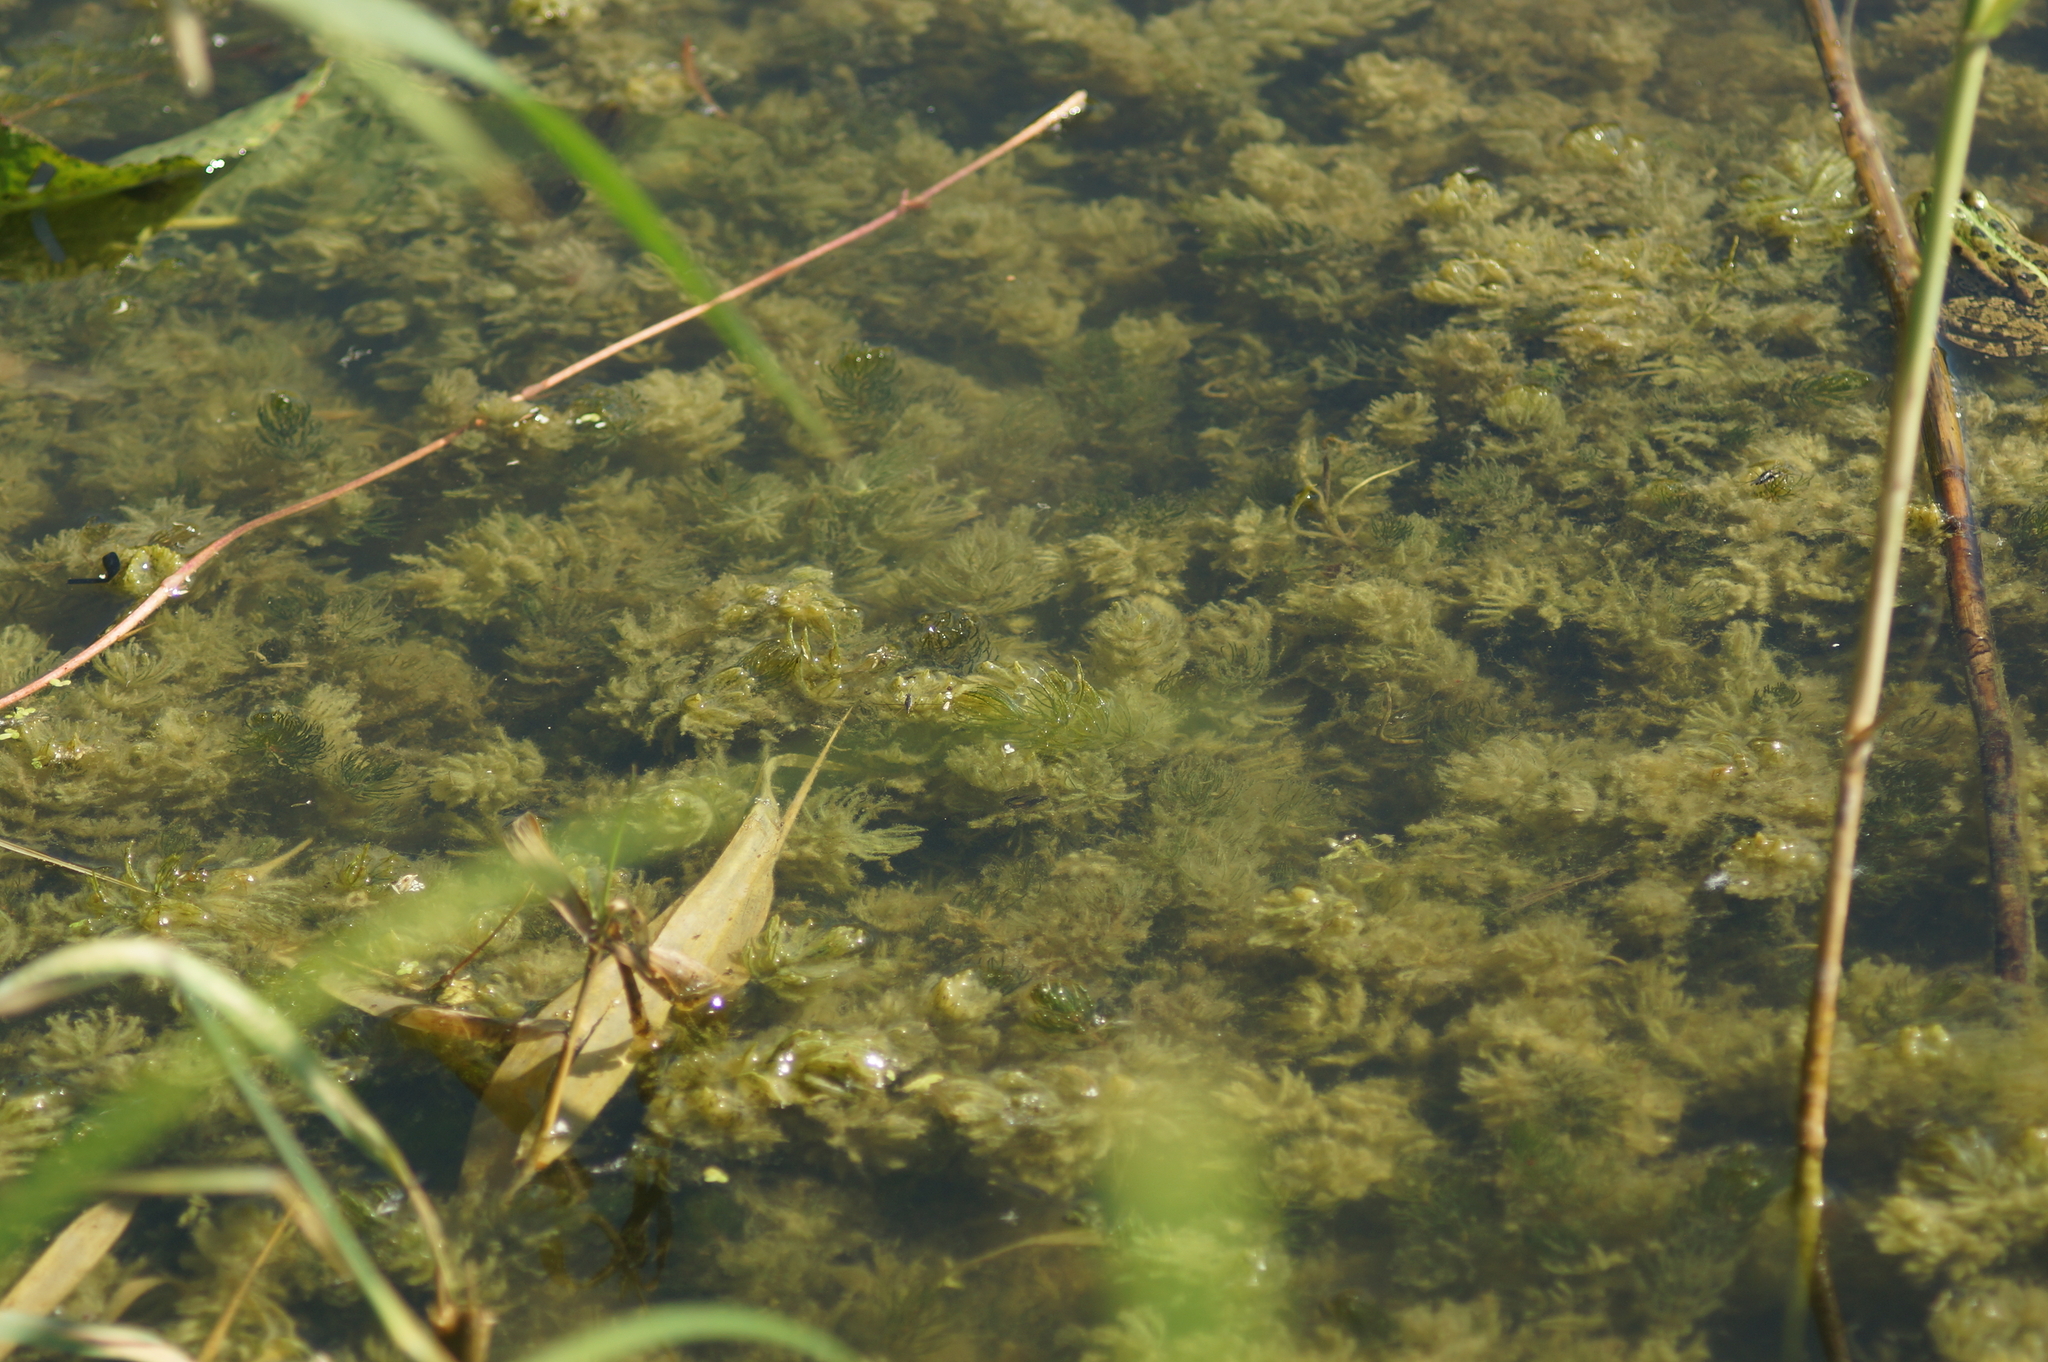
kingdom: Plantae
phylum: Tracheophyta
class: Magnoliopsida
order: Ceratophyllales
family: Ceratophyllaceae
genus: Ceratophyllum
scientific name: Ceratophyllum demersum
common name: Rigid hornwort
